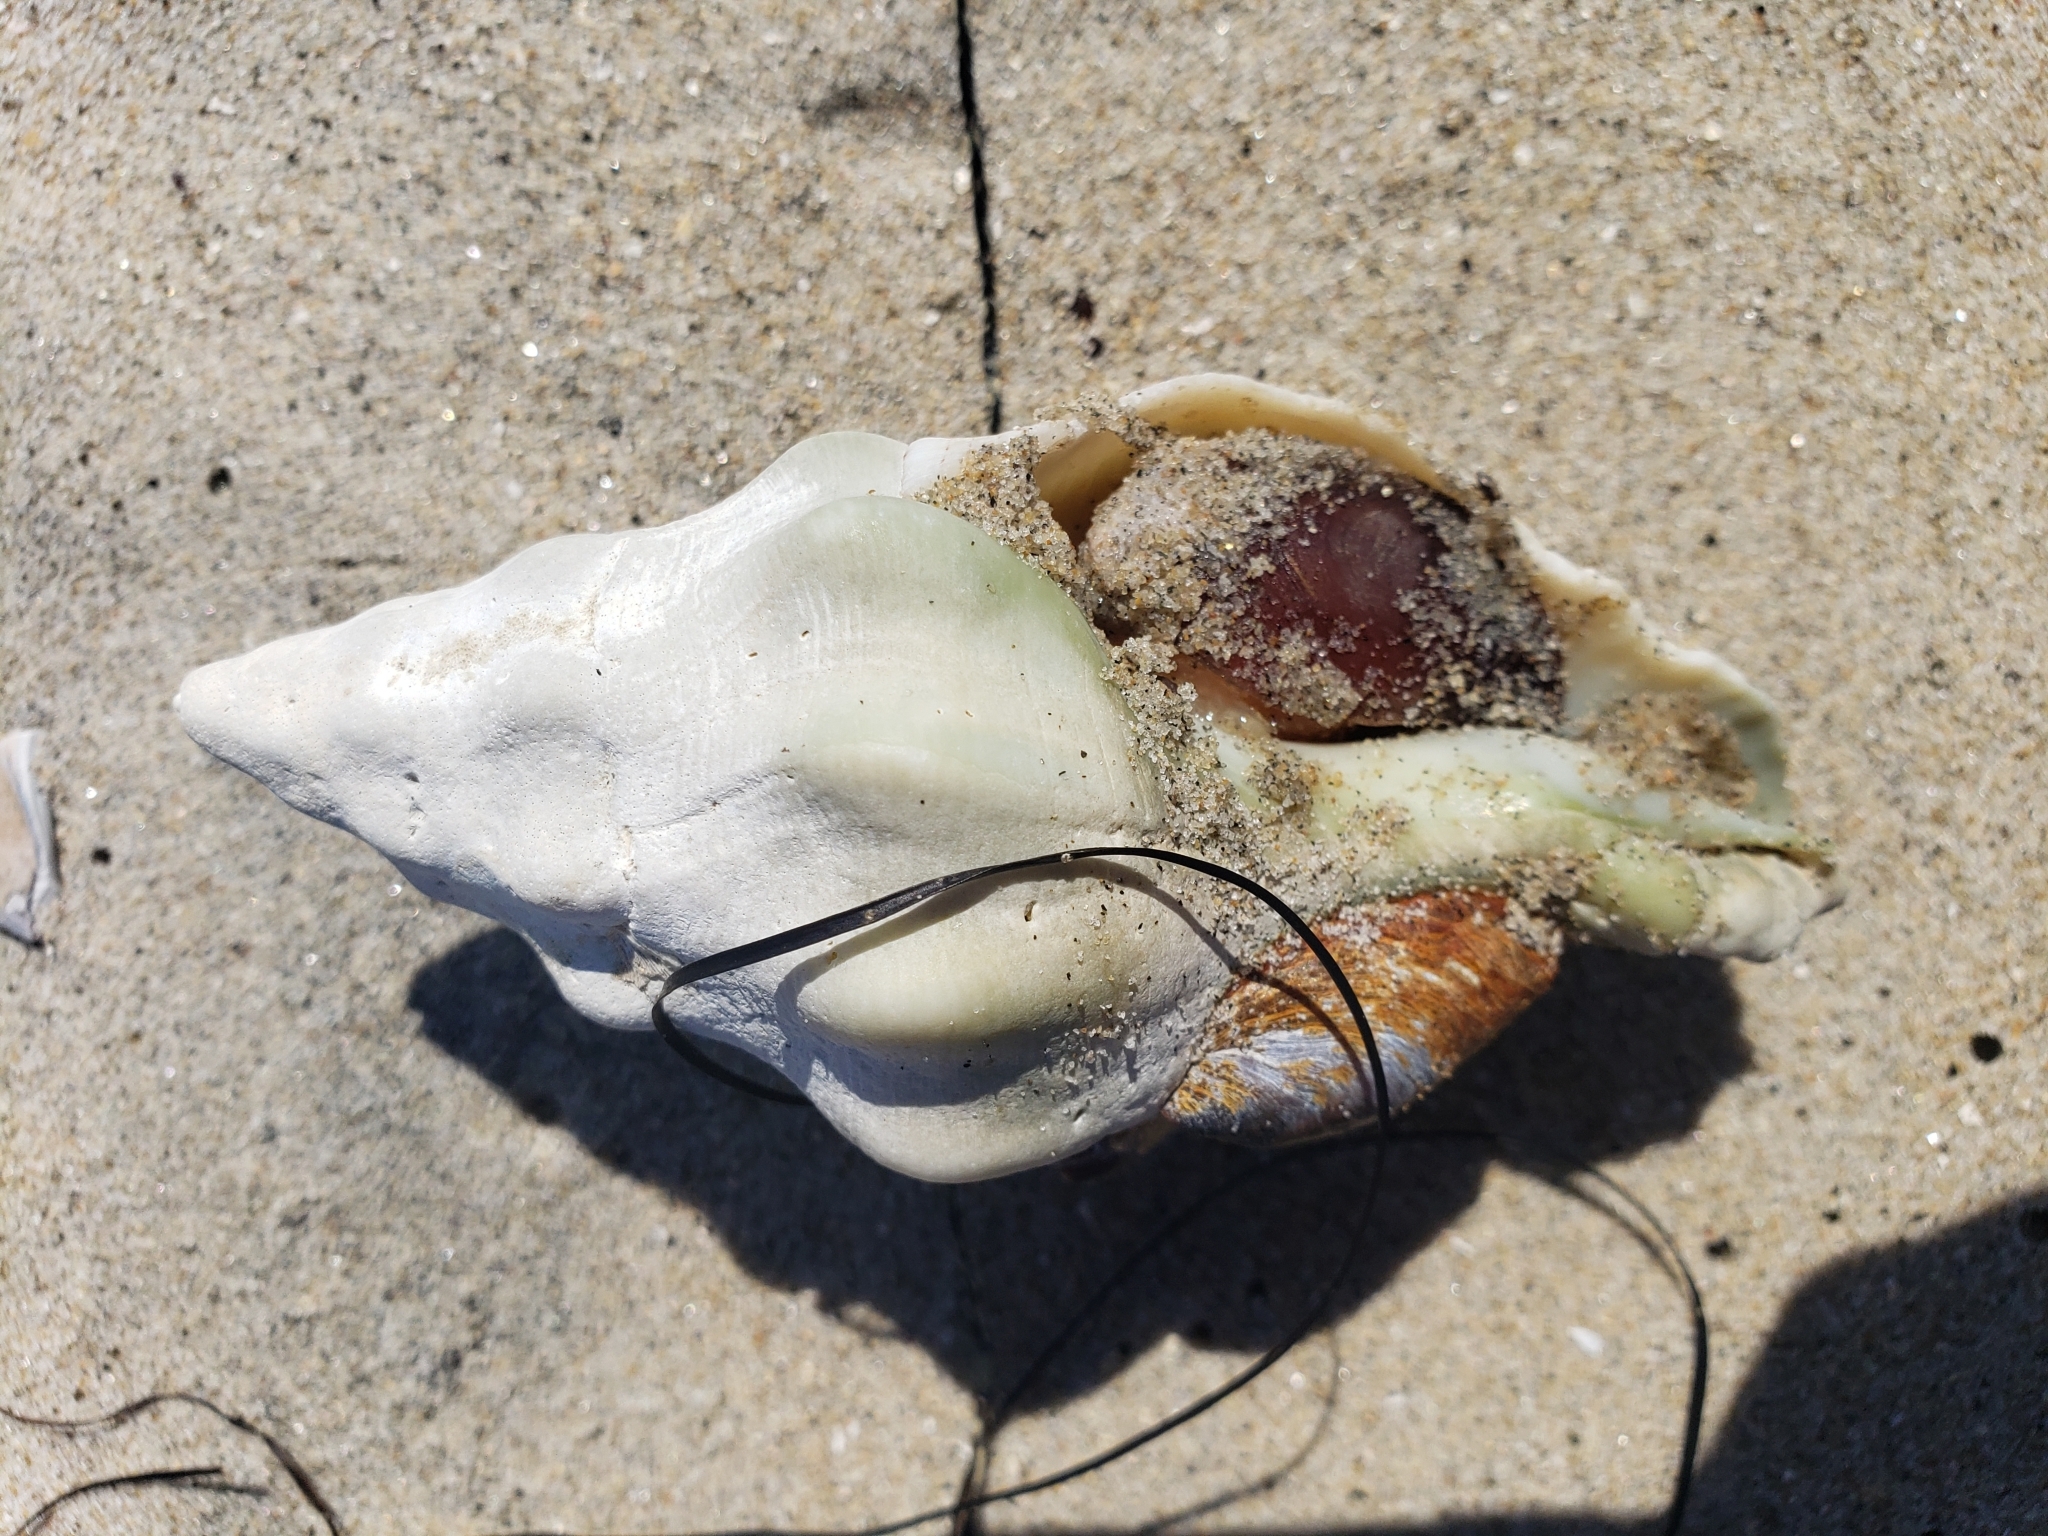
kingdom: Animalia
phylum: Mollusca
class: Gastropoda
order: Neogastropoda
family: Austrosiphonidae
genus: Kelletia
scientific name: Kelletia kelletii
